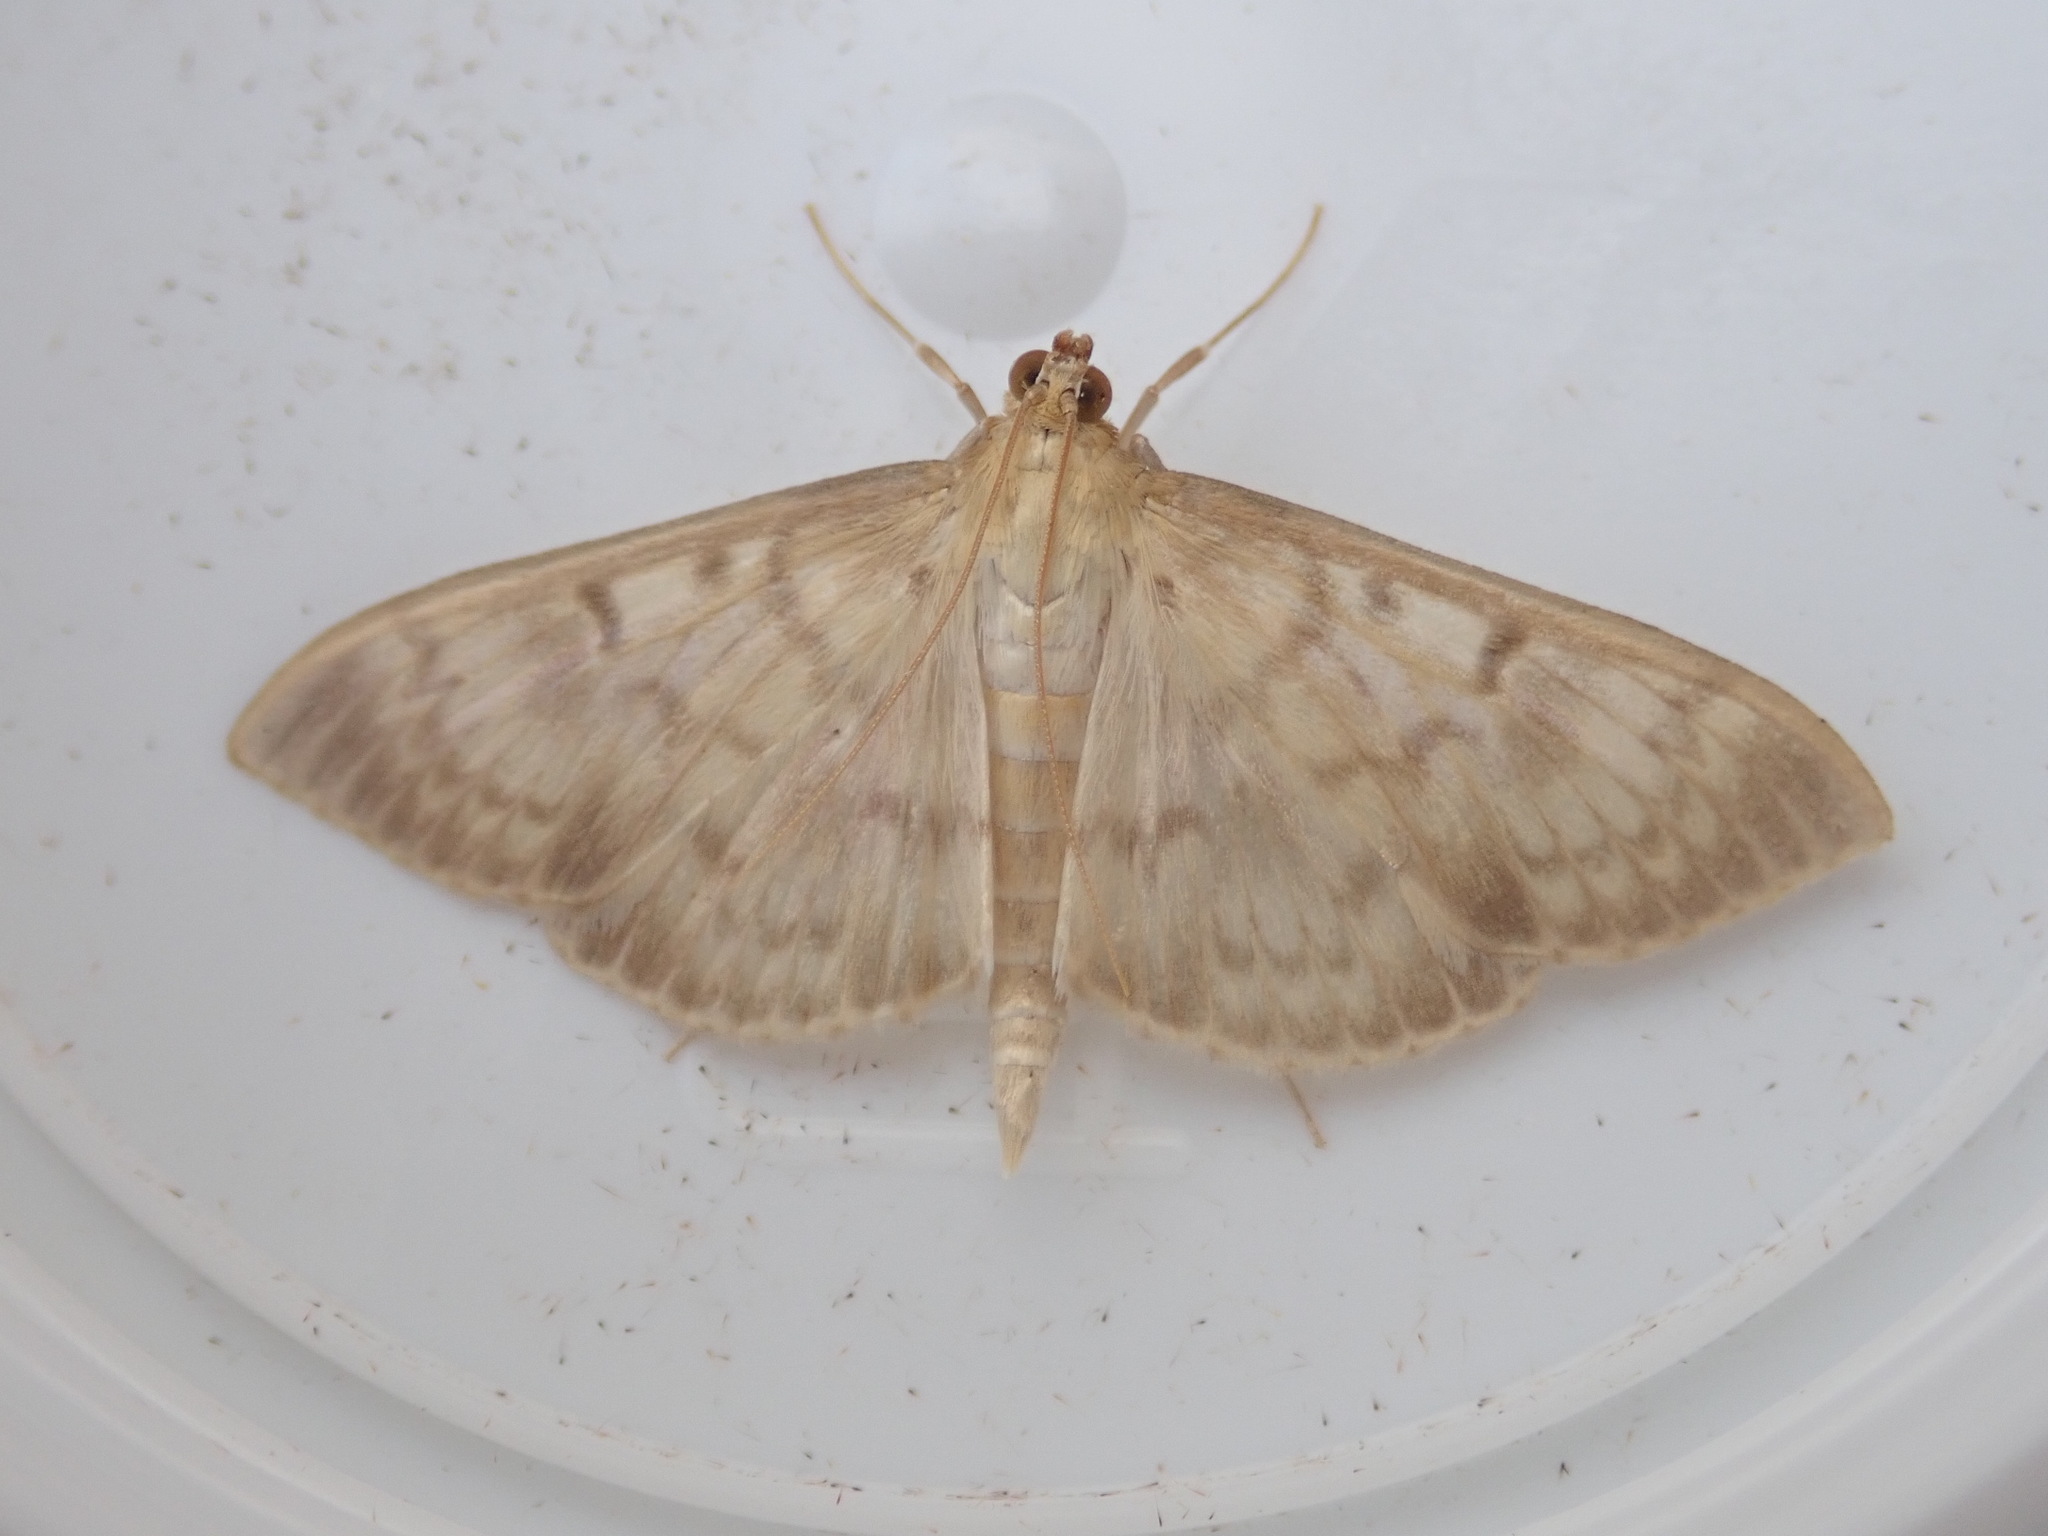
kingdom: Animalia
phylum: Arthropoda
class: Insecta
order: Lepidoptera
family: Crambidae
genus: Patania
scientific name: Patania ruralis
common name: Mother of pearl
